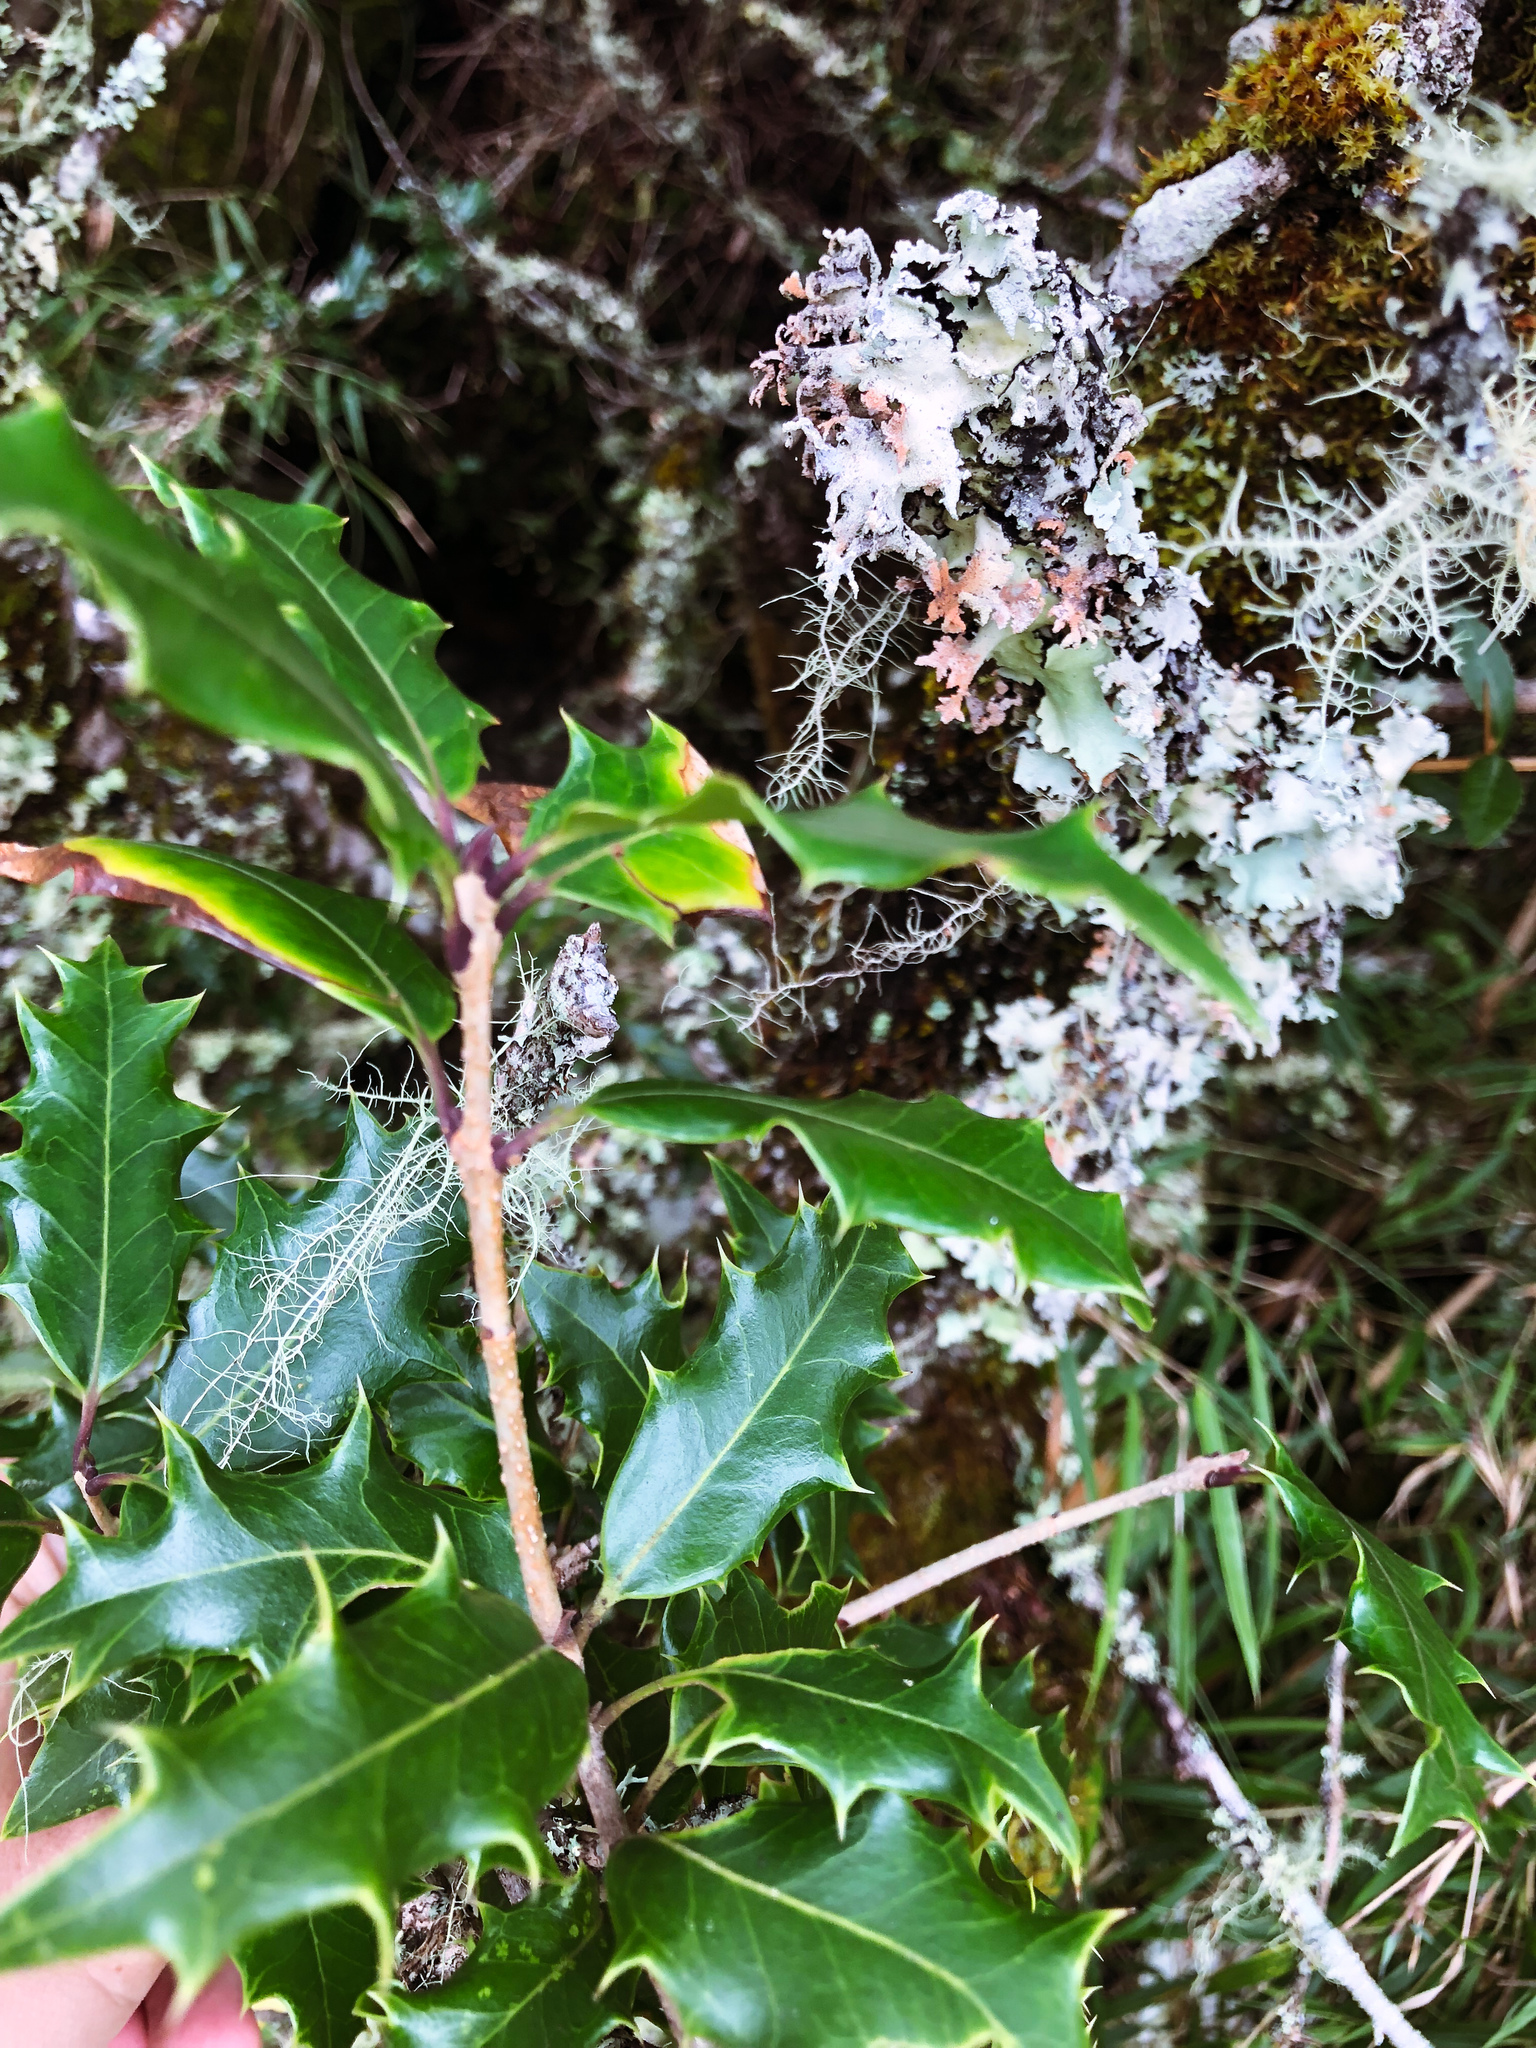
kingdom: Plantae
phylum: Tracheophyta
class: Magnoliopsida
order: Lamiales
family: Oleaceae
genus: Osmanthus
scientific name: Osmanthus heterophyllus
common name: Holly osmanthus
